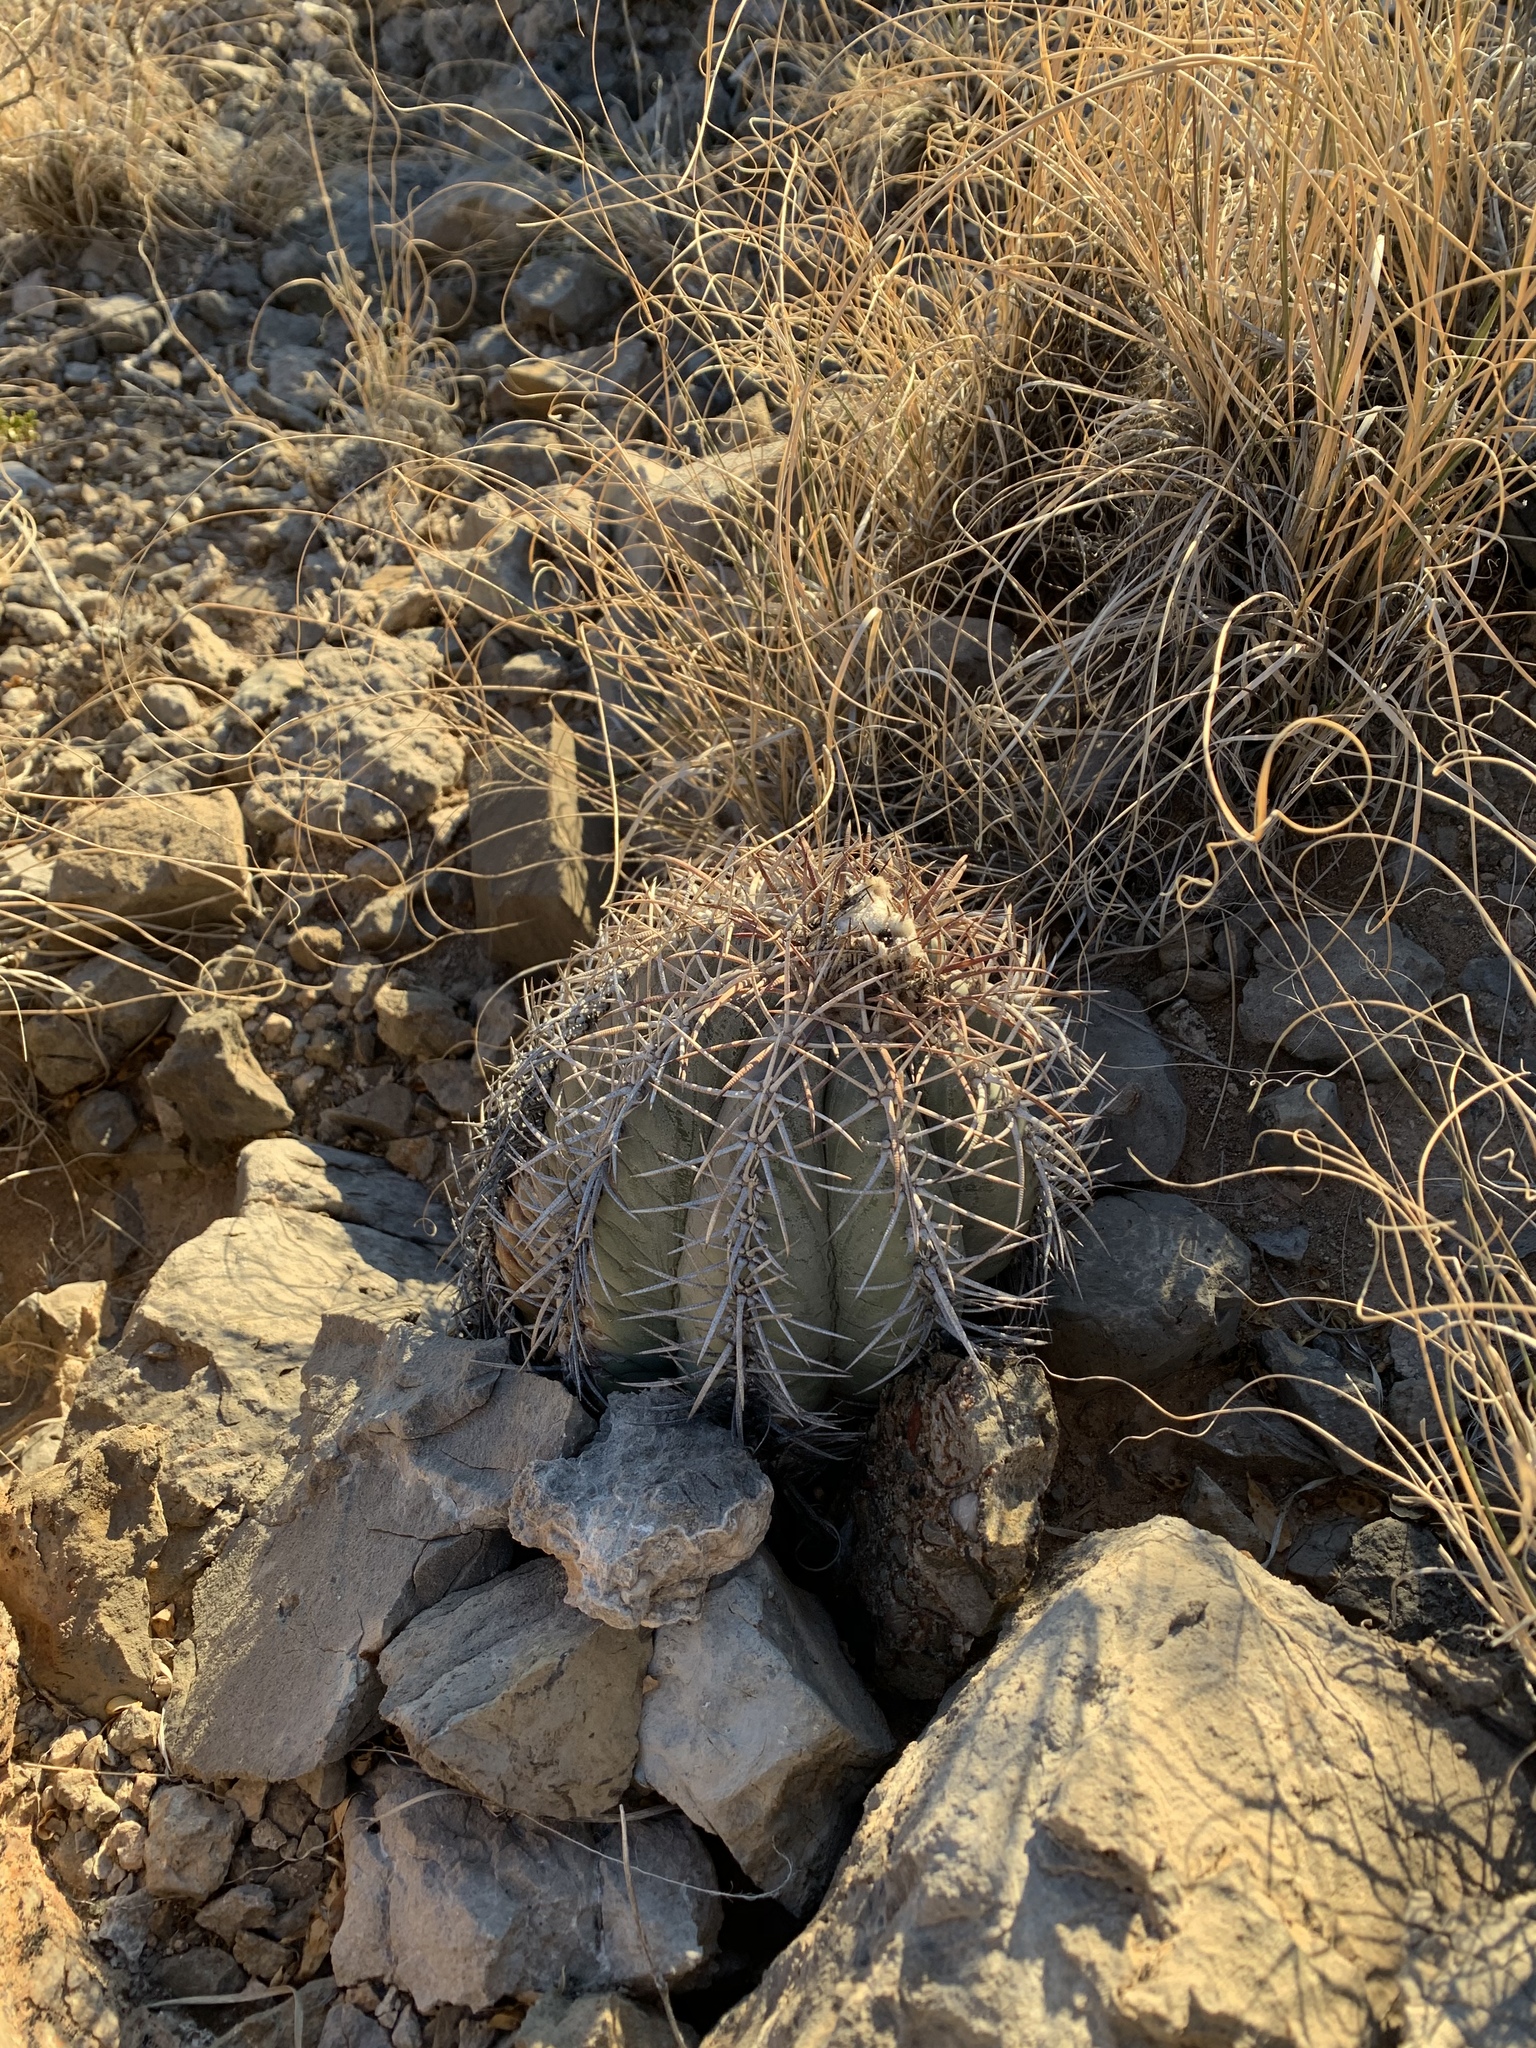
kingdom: Plantae
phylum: Tracheophyta
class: Magnoliopsida
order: Caryophyllales
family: Cactaceae
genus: Echinocactus
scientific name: Echinocactus horizonthalonius
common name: Devilshead
